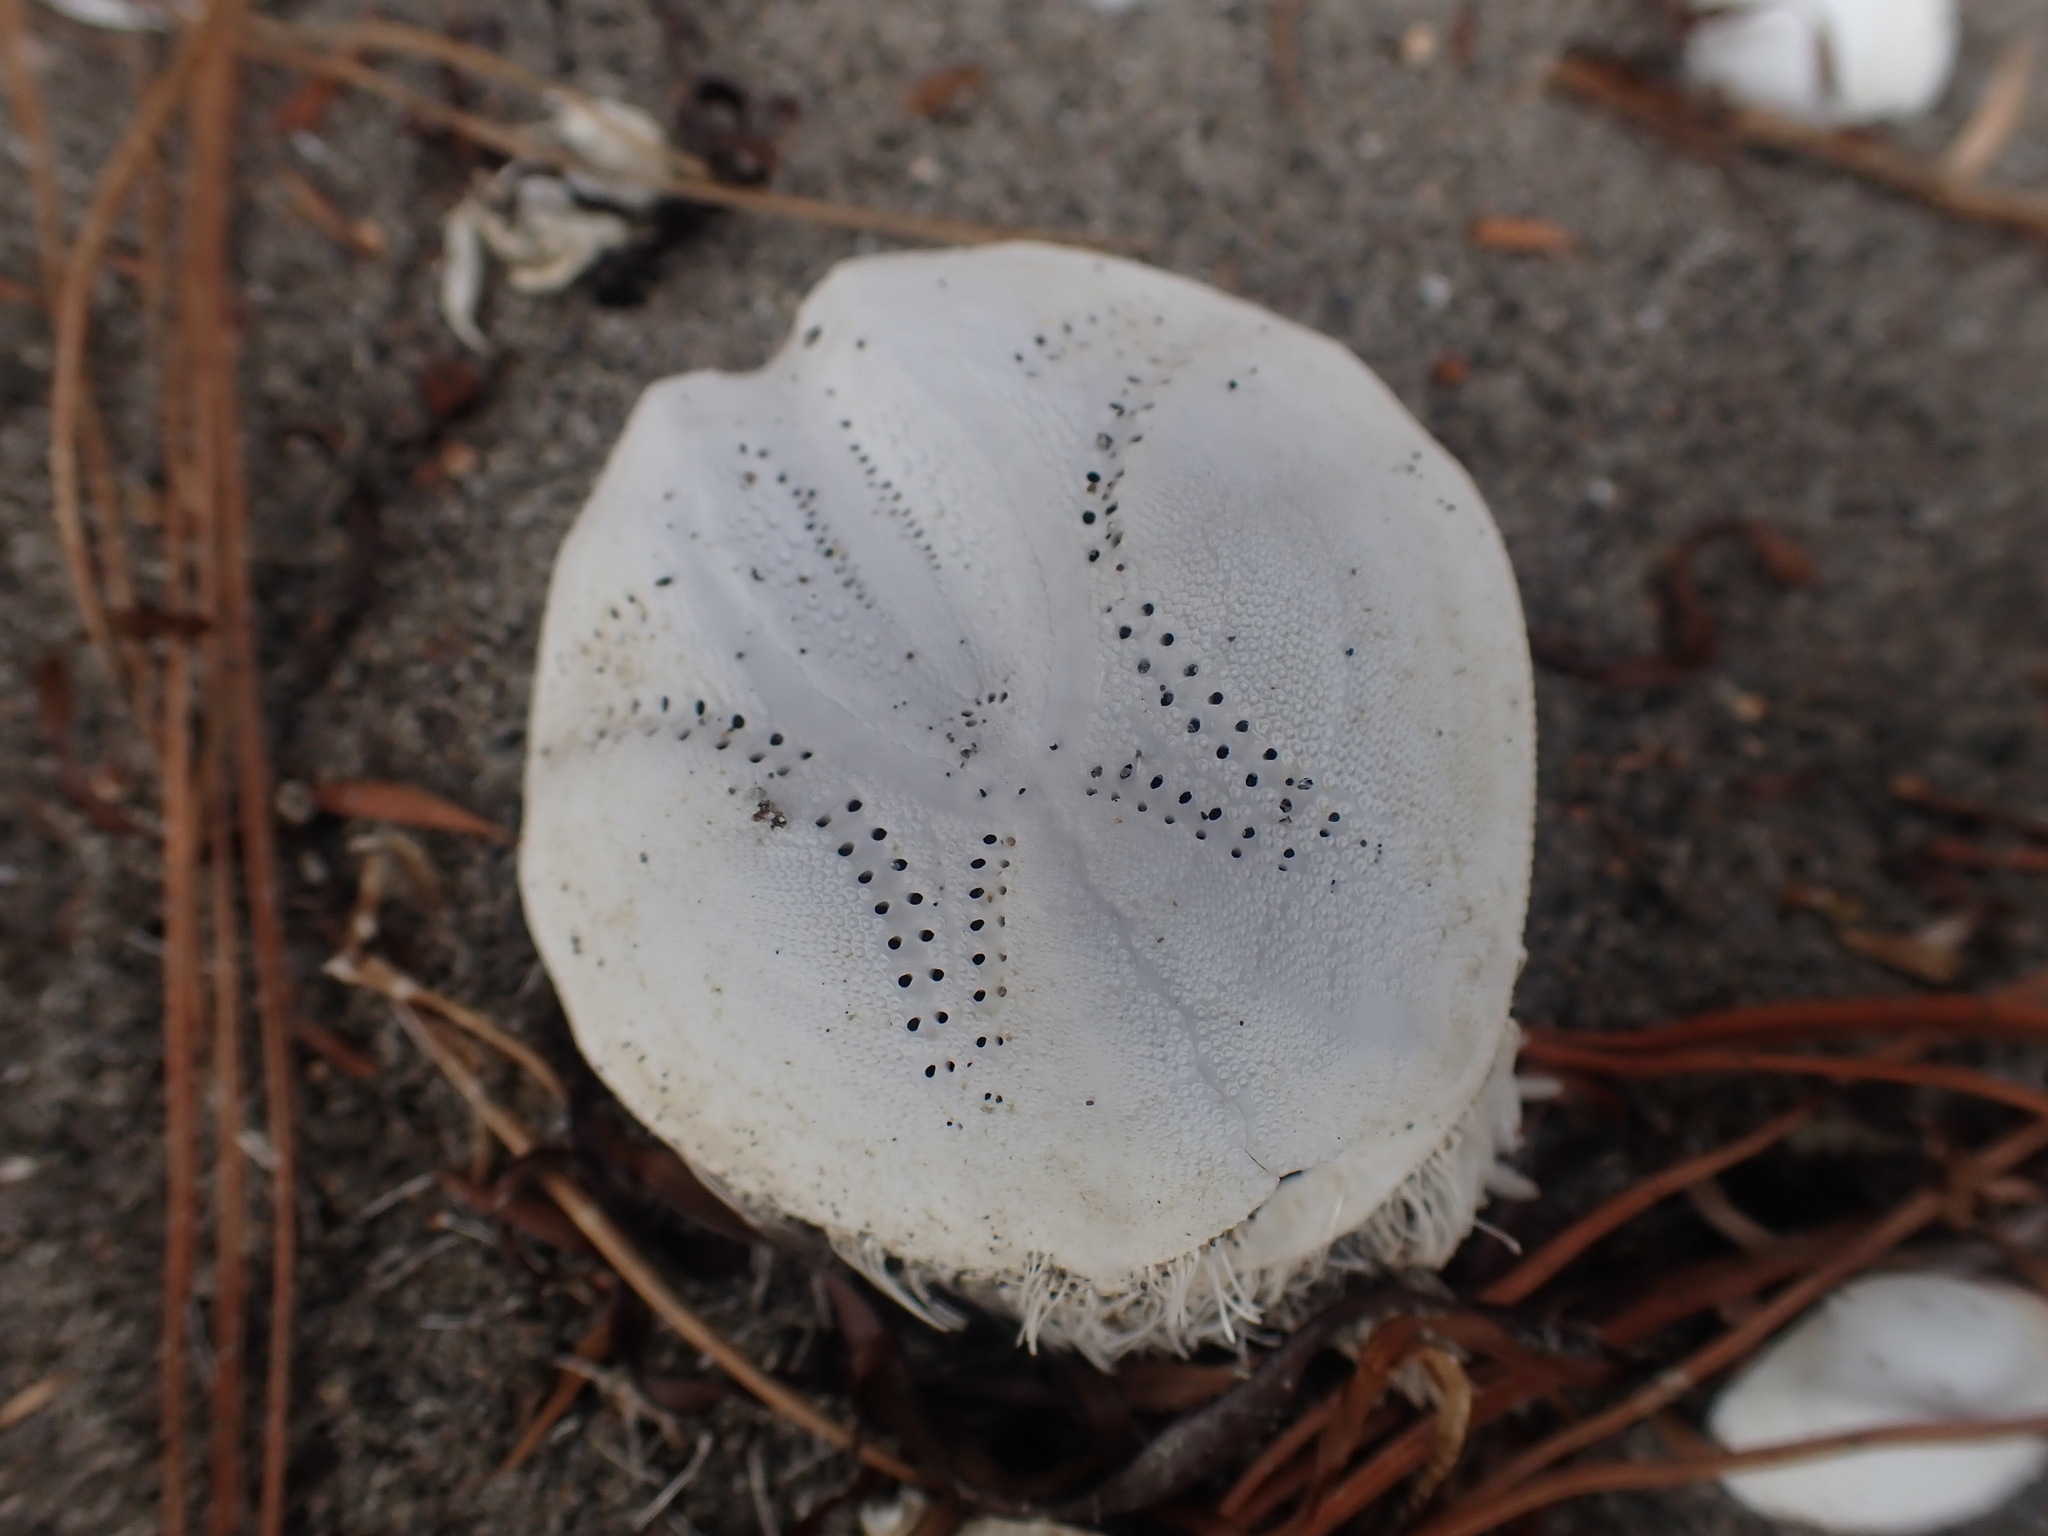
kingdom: Animalia
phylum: Echinodermata
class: Echinoidea
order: Spatangoida
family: Loveniidae
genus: Echinocardium
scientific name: Echinocardium cordatum
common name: Heart-urchin
